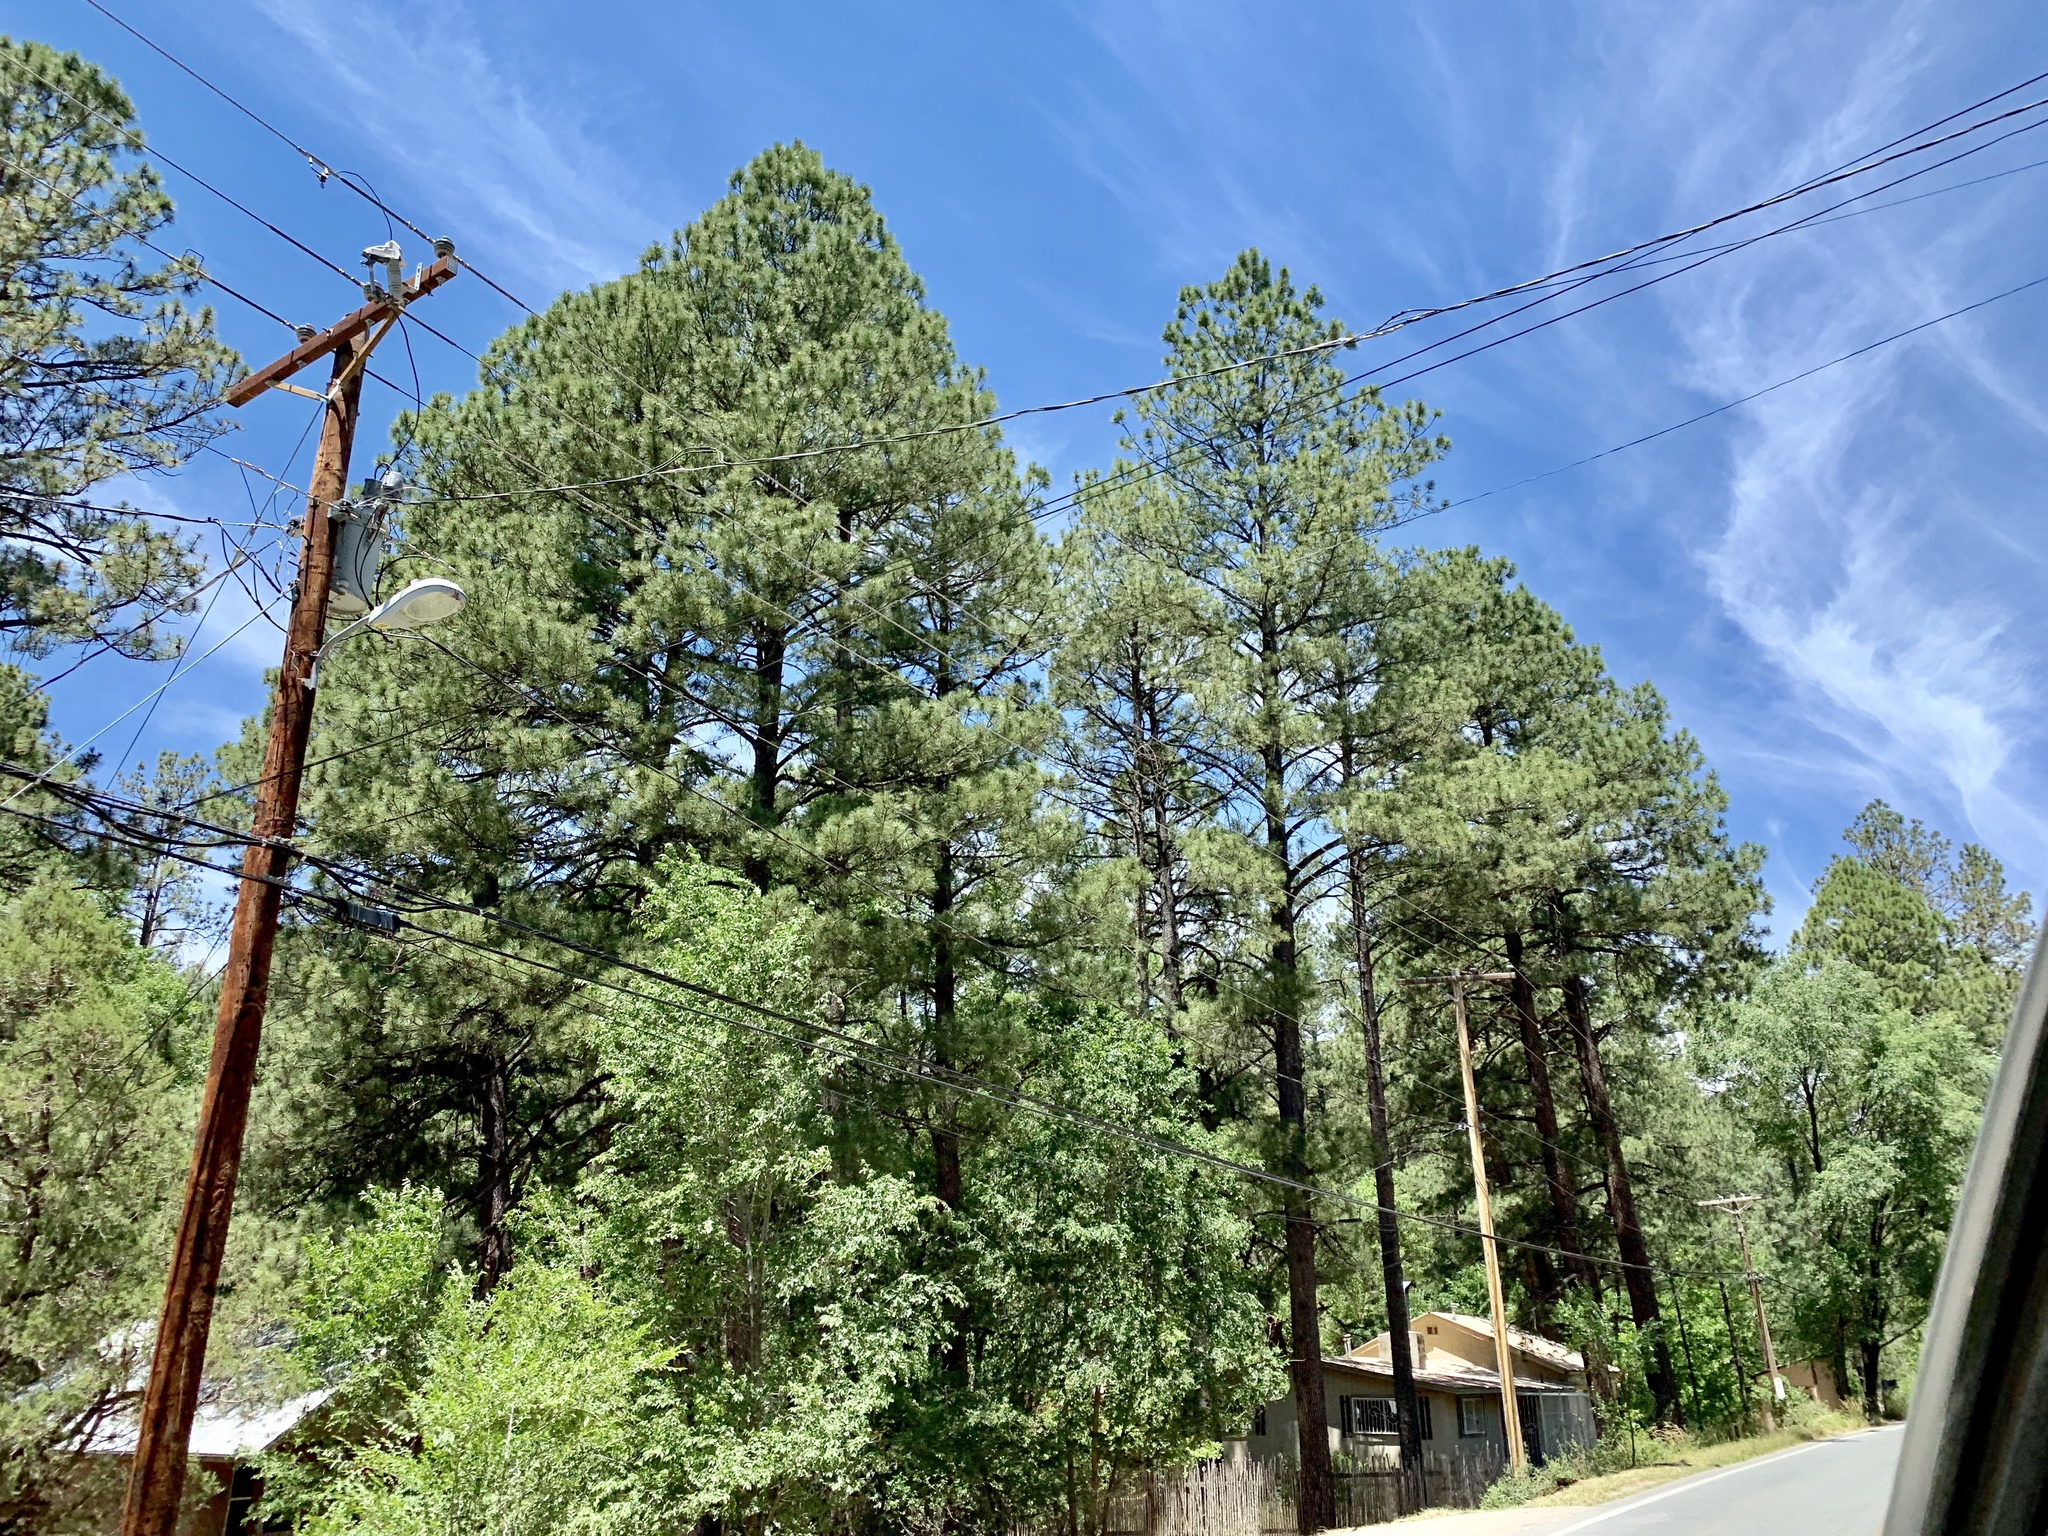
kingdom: Plantae
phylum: Tracheophyta
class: Pinopsida
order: Pinales
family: Pinaceae
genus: Pinus
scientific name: Pinus ponderosa
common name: Western yellow-pine
